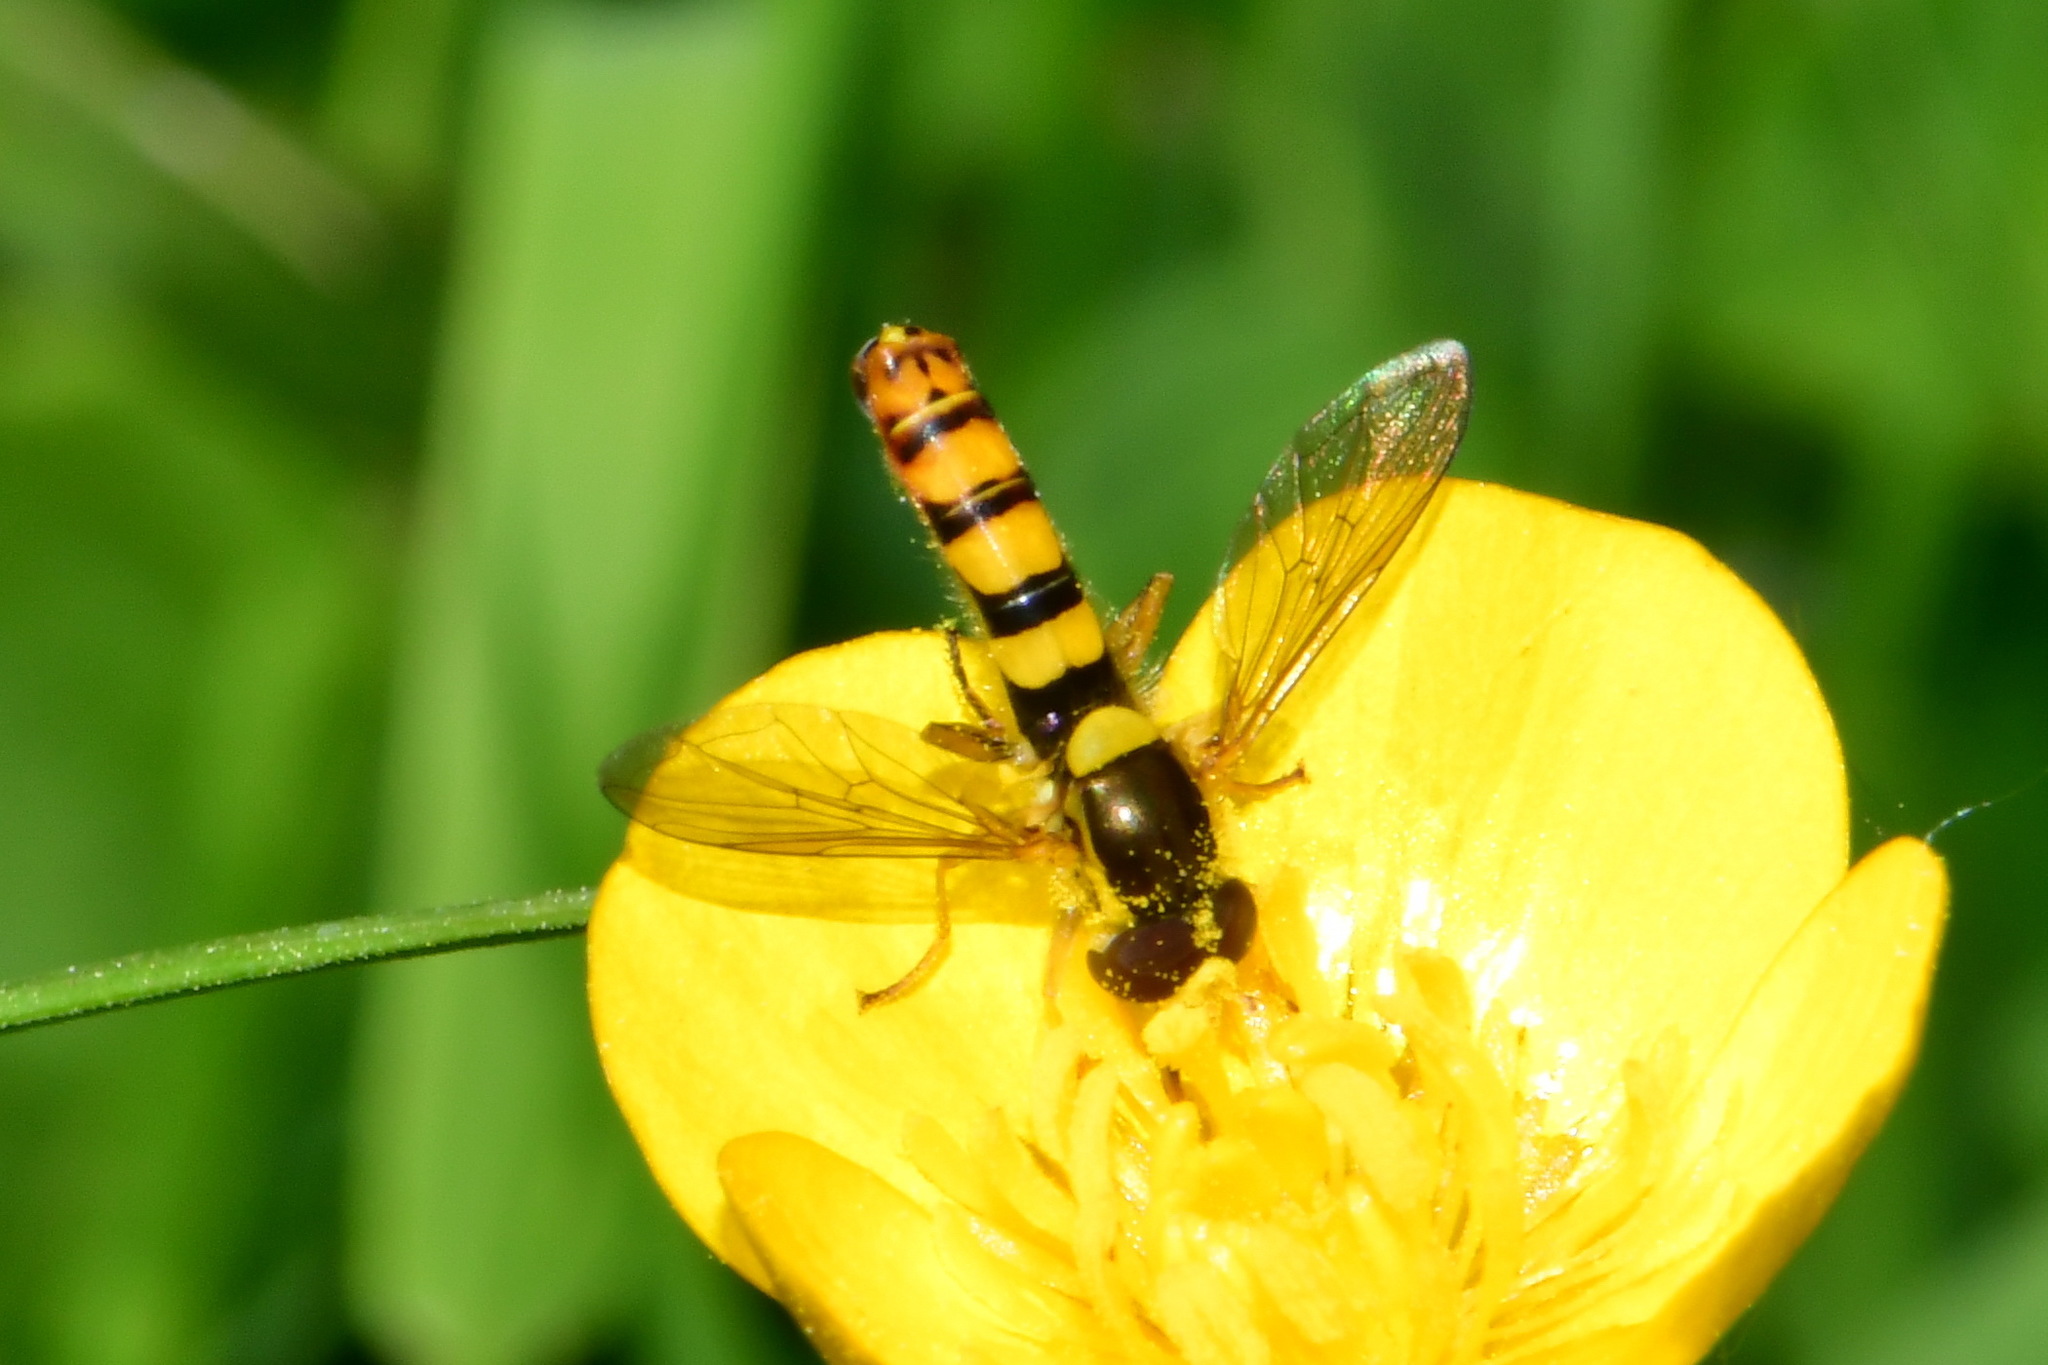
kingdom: Animalia
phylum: Arthropoda
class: Insecta
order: Diptera
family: Syrphidae
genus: Sphaerophoria
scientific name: Sphaerophoria
